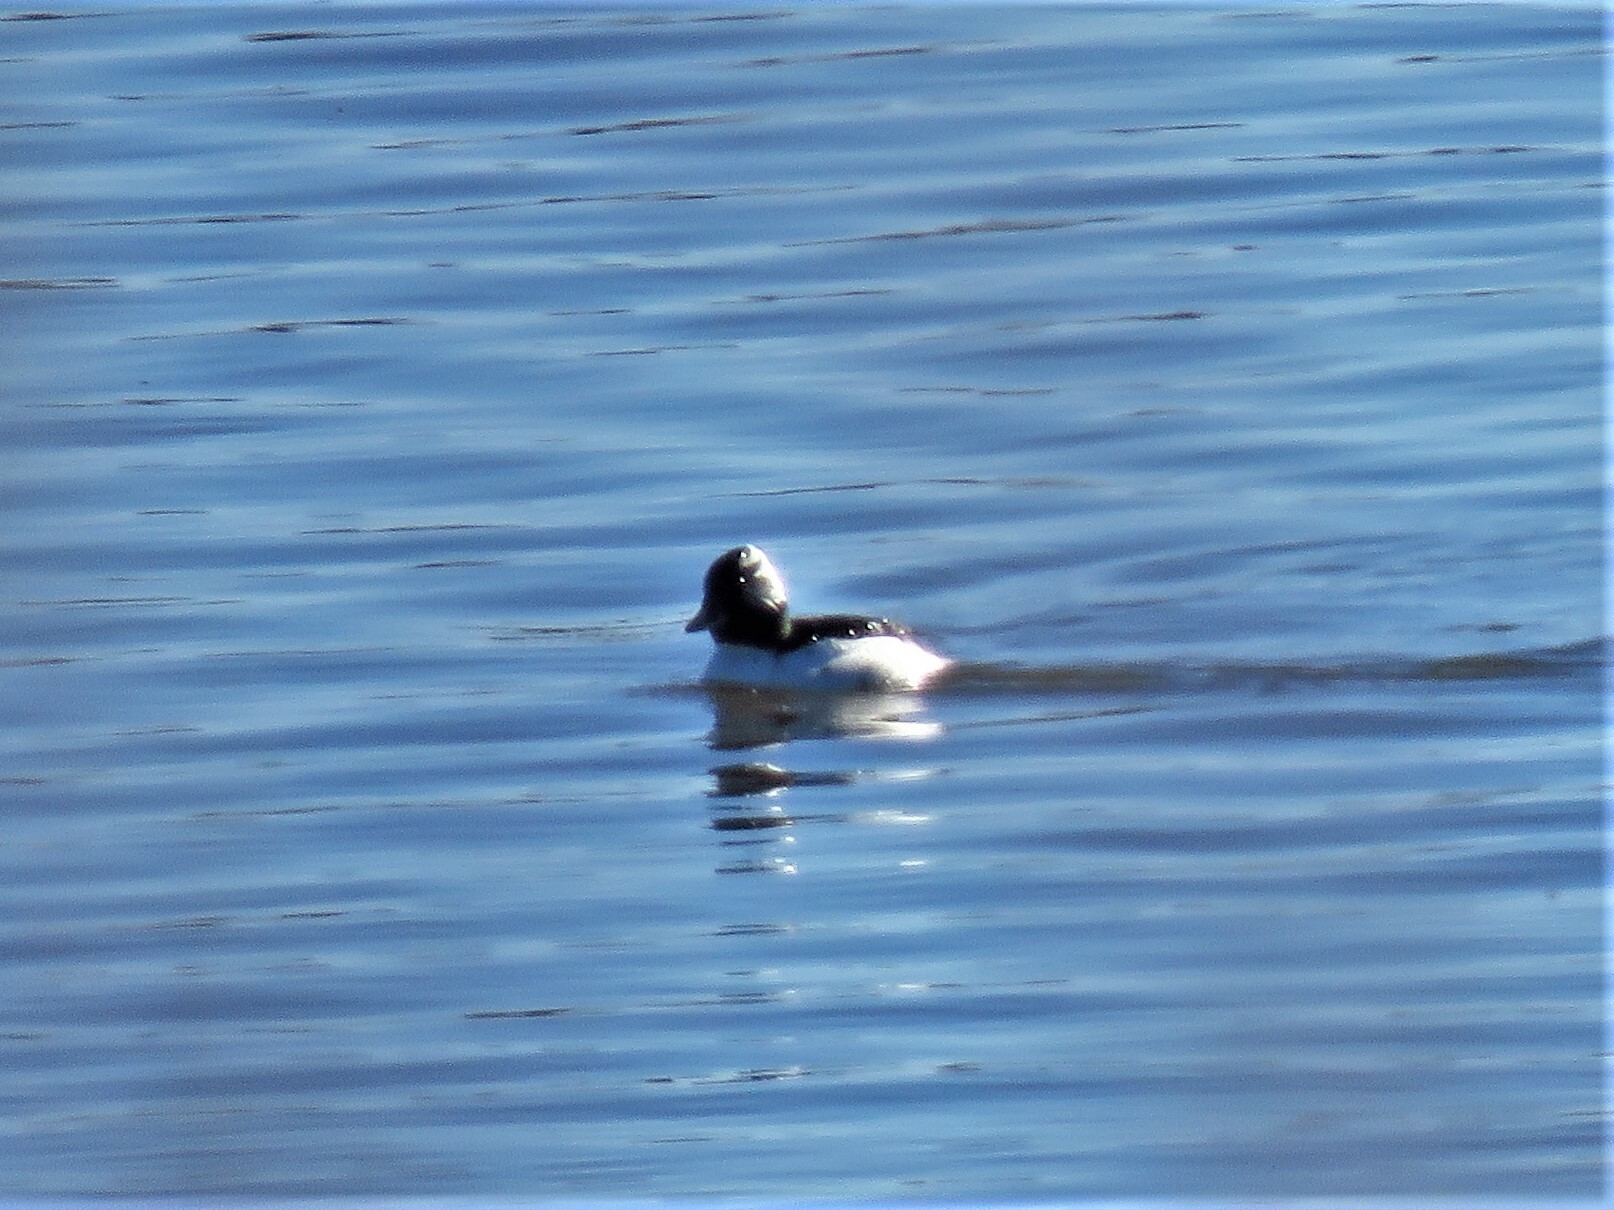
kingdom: Animalia
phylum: Chordata
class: Aves
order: Anseriformes
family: Anatidae
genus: Bucephala
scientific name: Bucephala albeola
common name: Bufflehead
